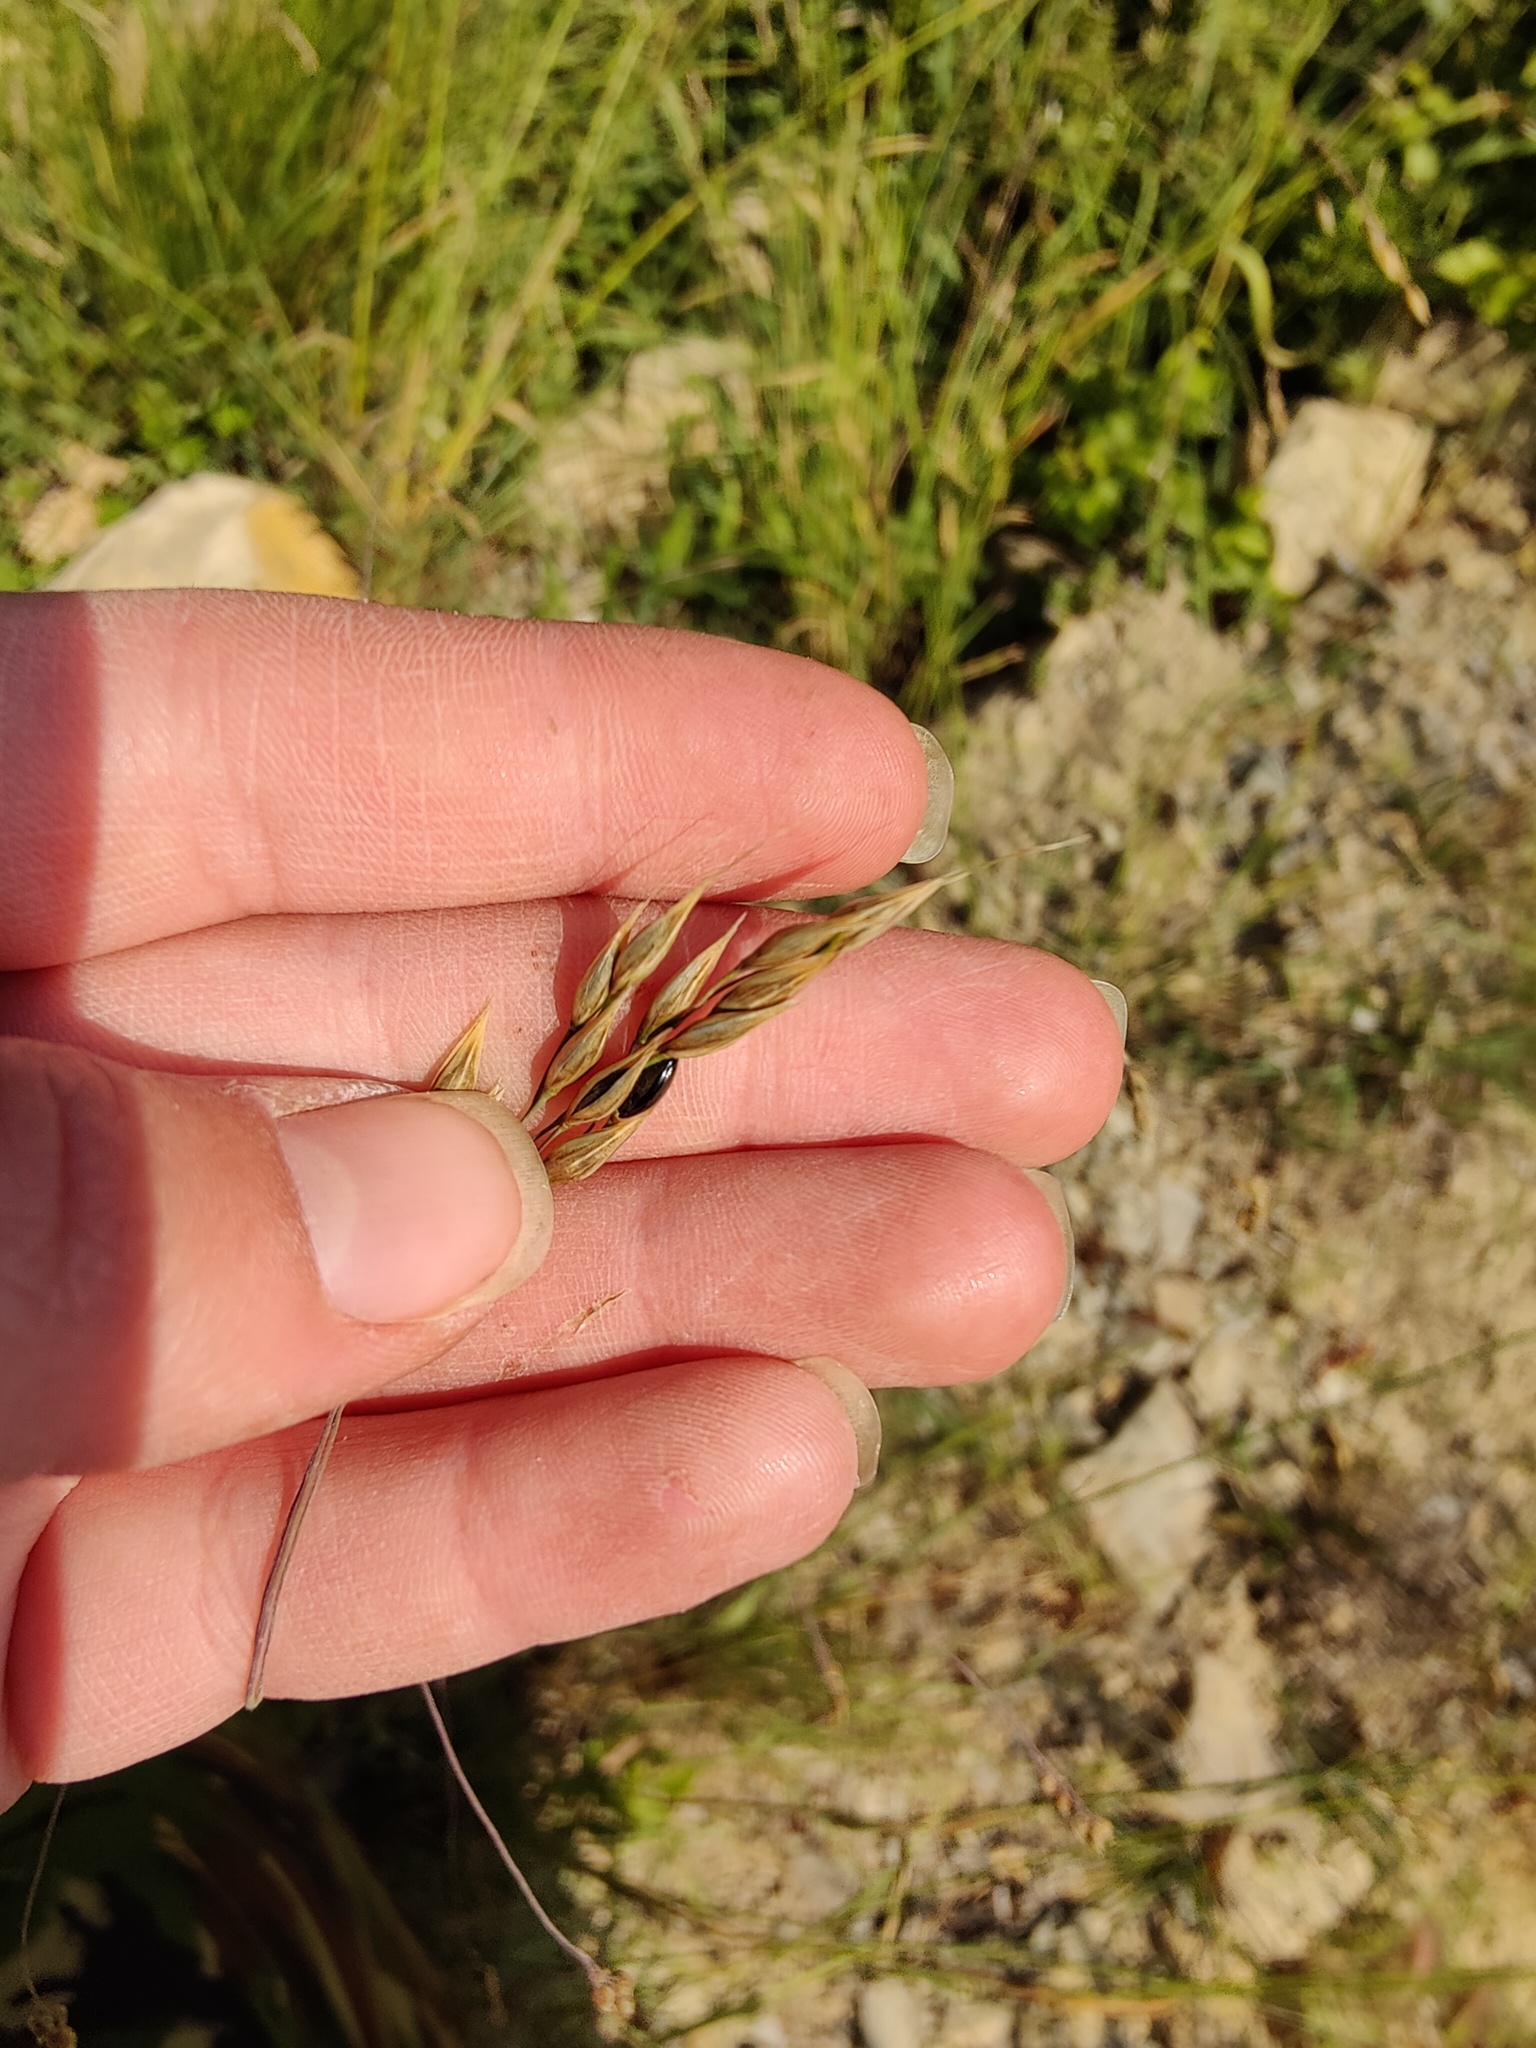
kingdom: Plantae
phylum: Tracheophyta
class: Liliopsida
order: Poales
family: Poaceae
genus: Piptatherum
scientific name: Piptatherum holciforme
